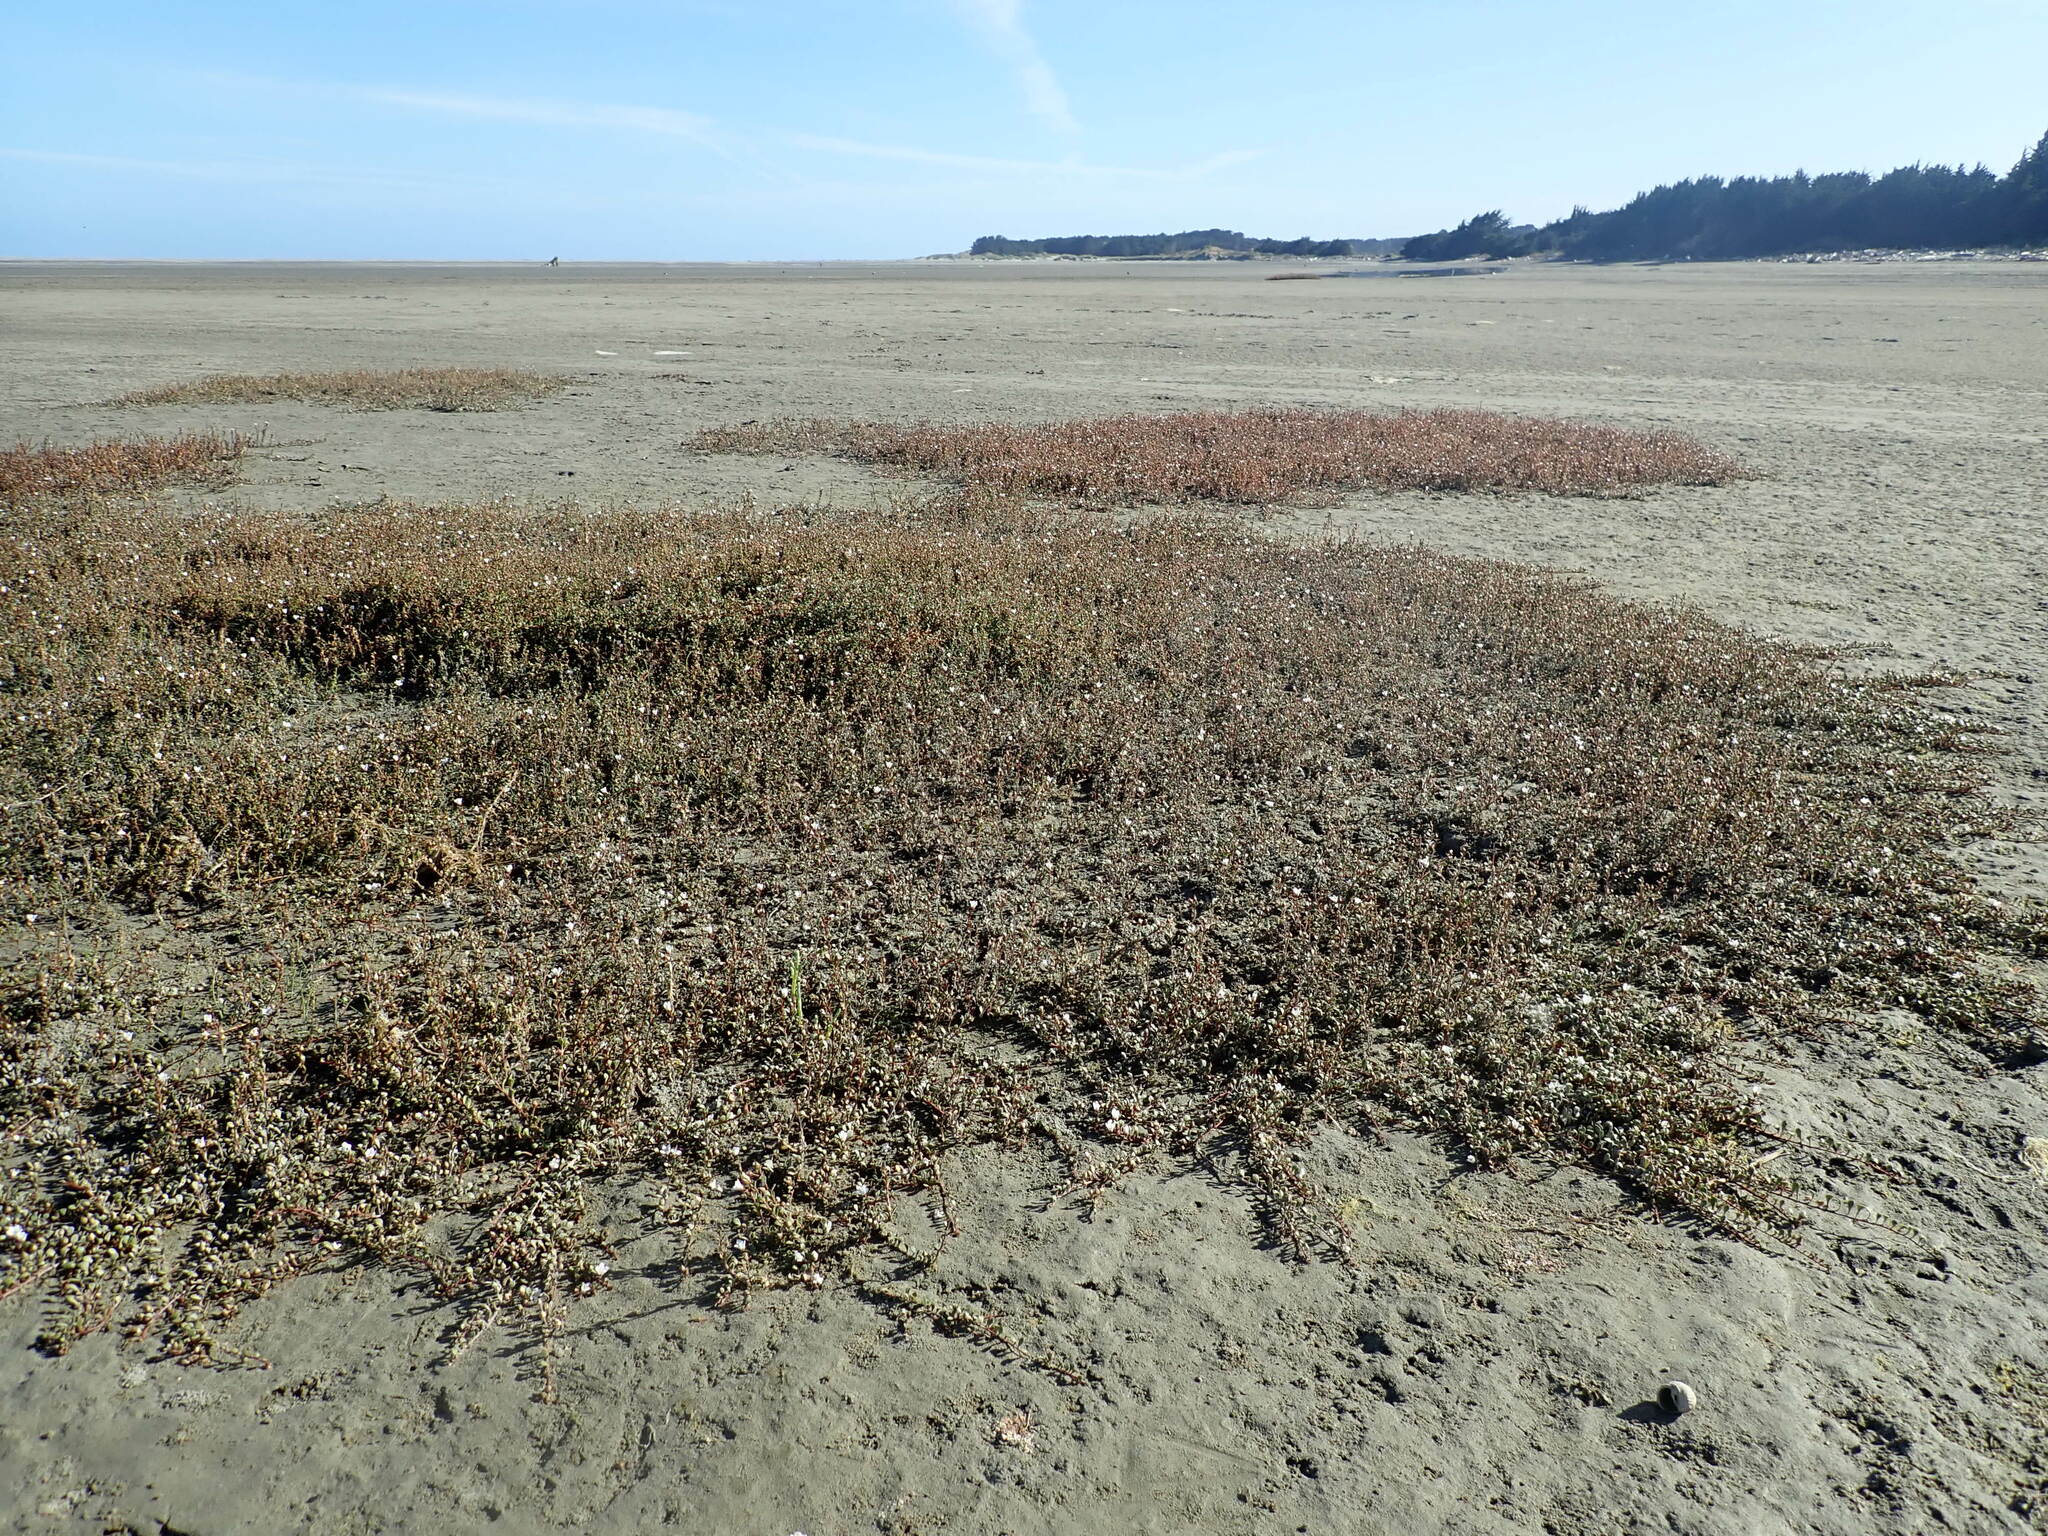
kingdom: Plantae
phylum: Tracheophyta
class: Magnoliopsida
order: Ericales
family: Primulaceae
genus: Samolus
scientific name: Samolus repens
